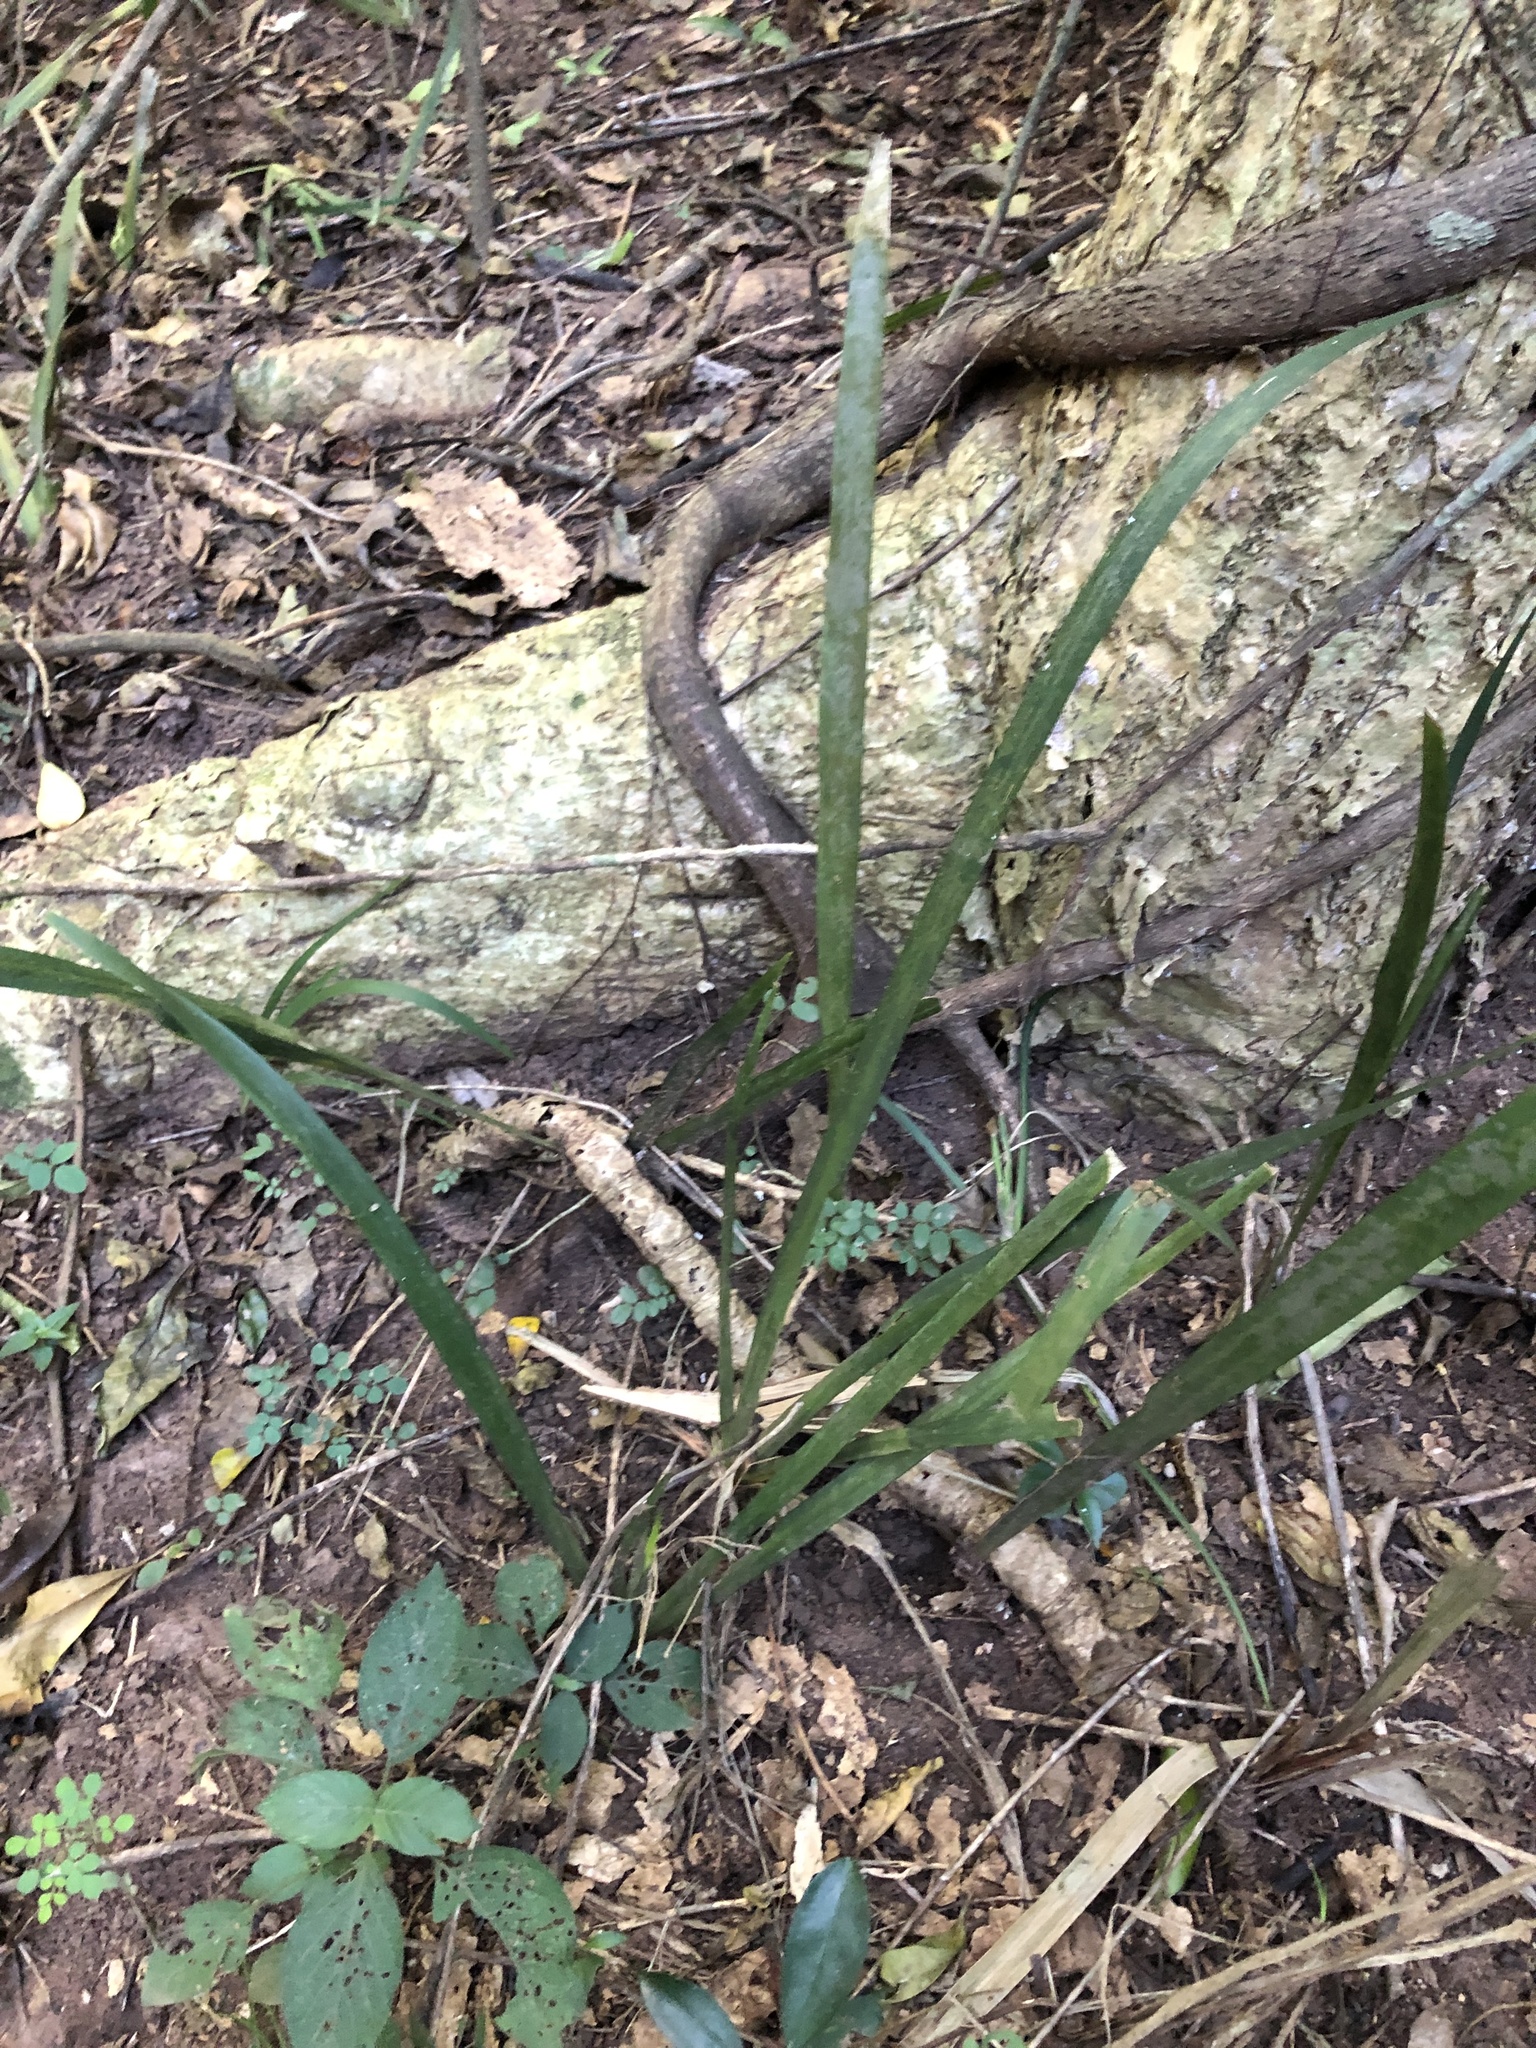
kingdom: Plantae
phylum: Tracheophyta
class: Liliopsida
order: Asparagales
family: Iridaceae
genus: Dietes
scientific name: Dietes iridioides
